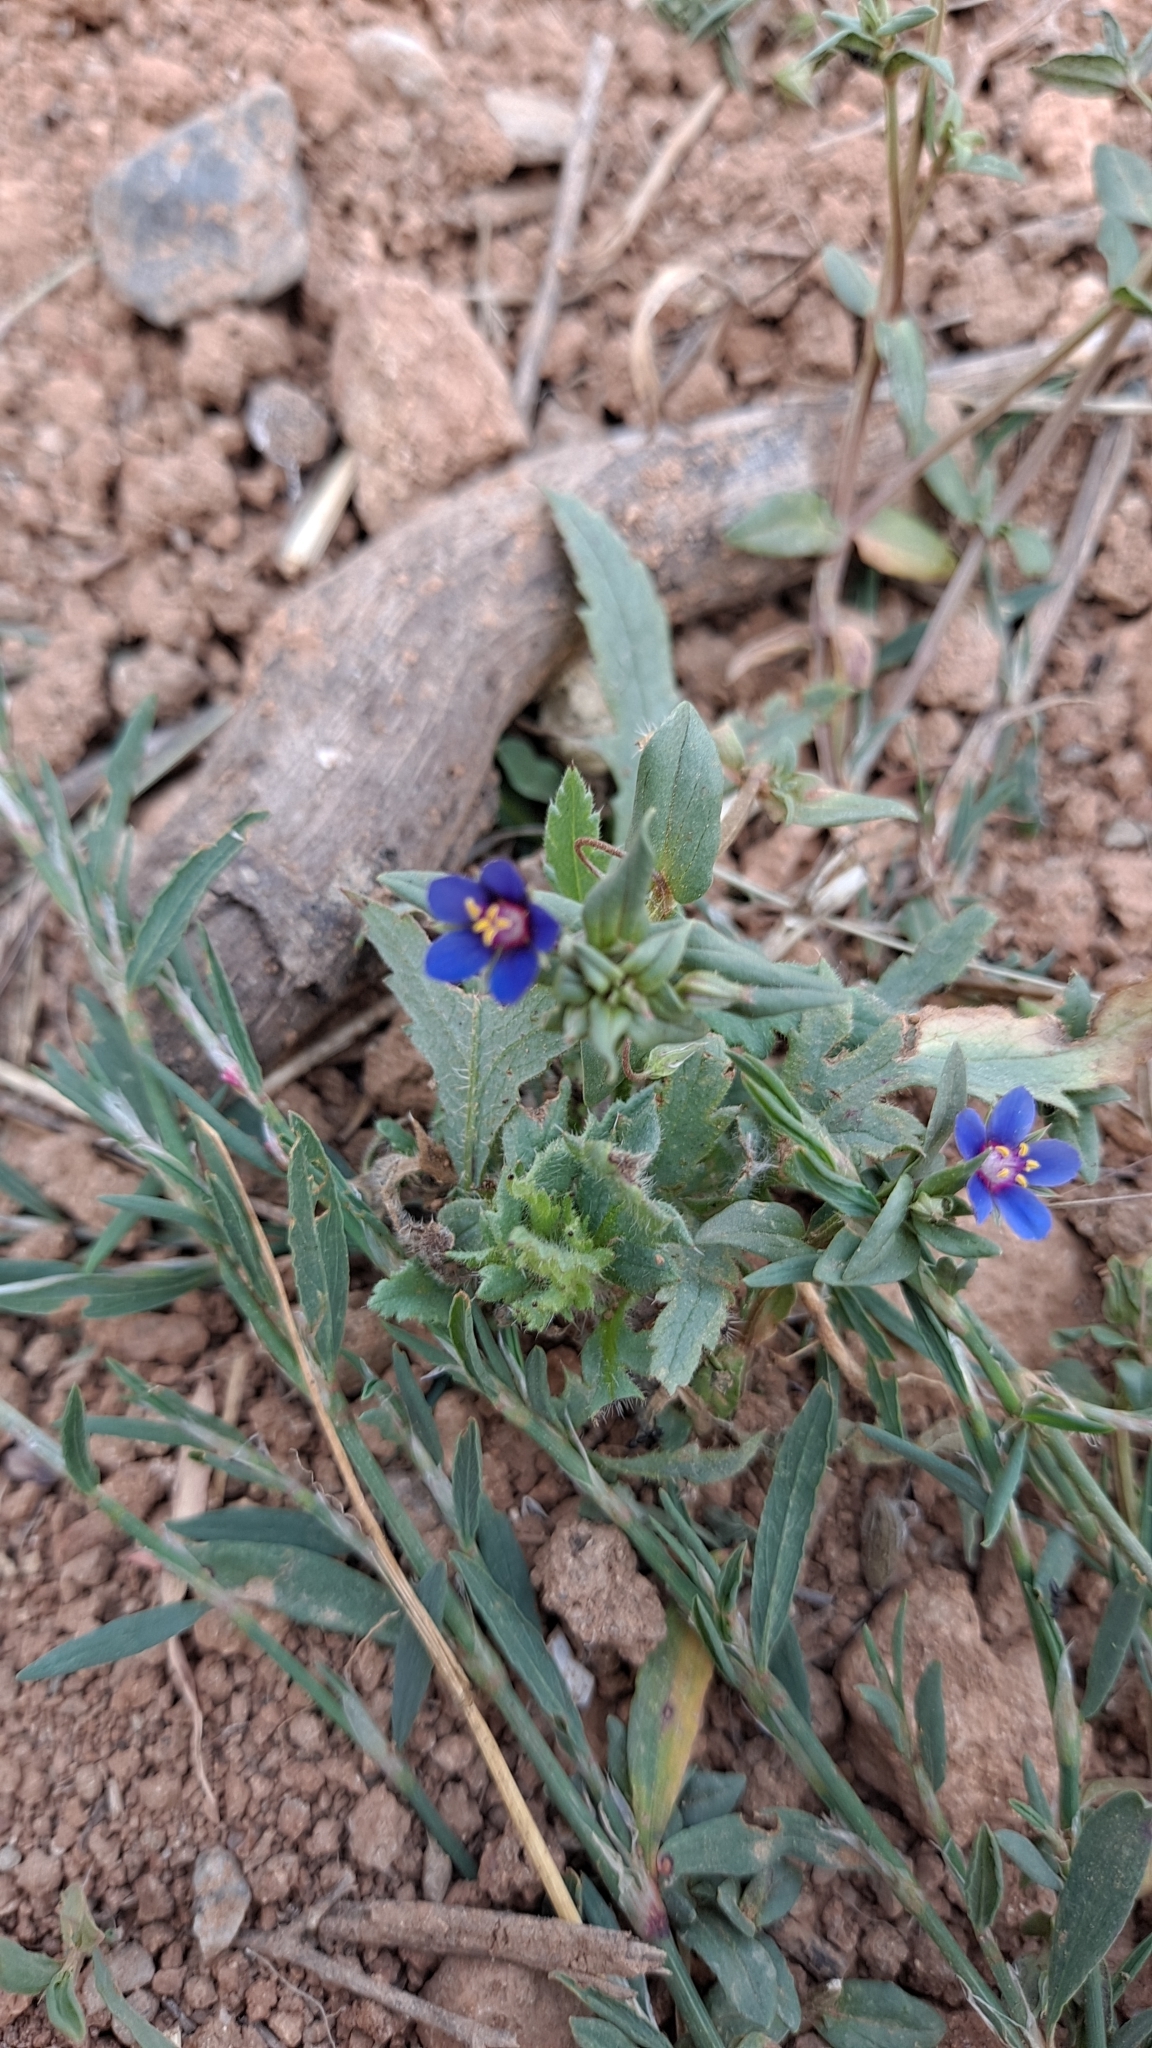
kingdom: Plantae
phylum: Tracheophyta
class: Magnoliopsida
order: Ericales
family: Primulaceae
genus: Lysimachia
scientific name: Lysimachia foemina
